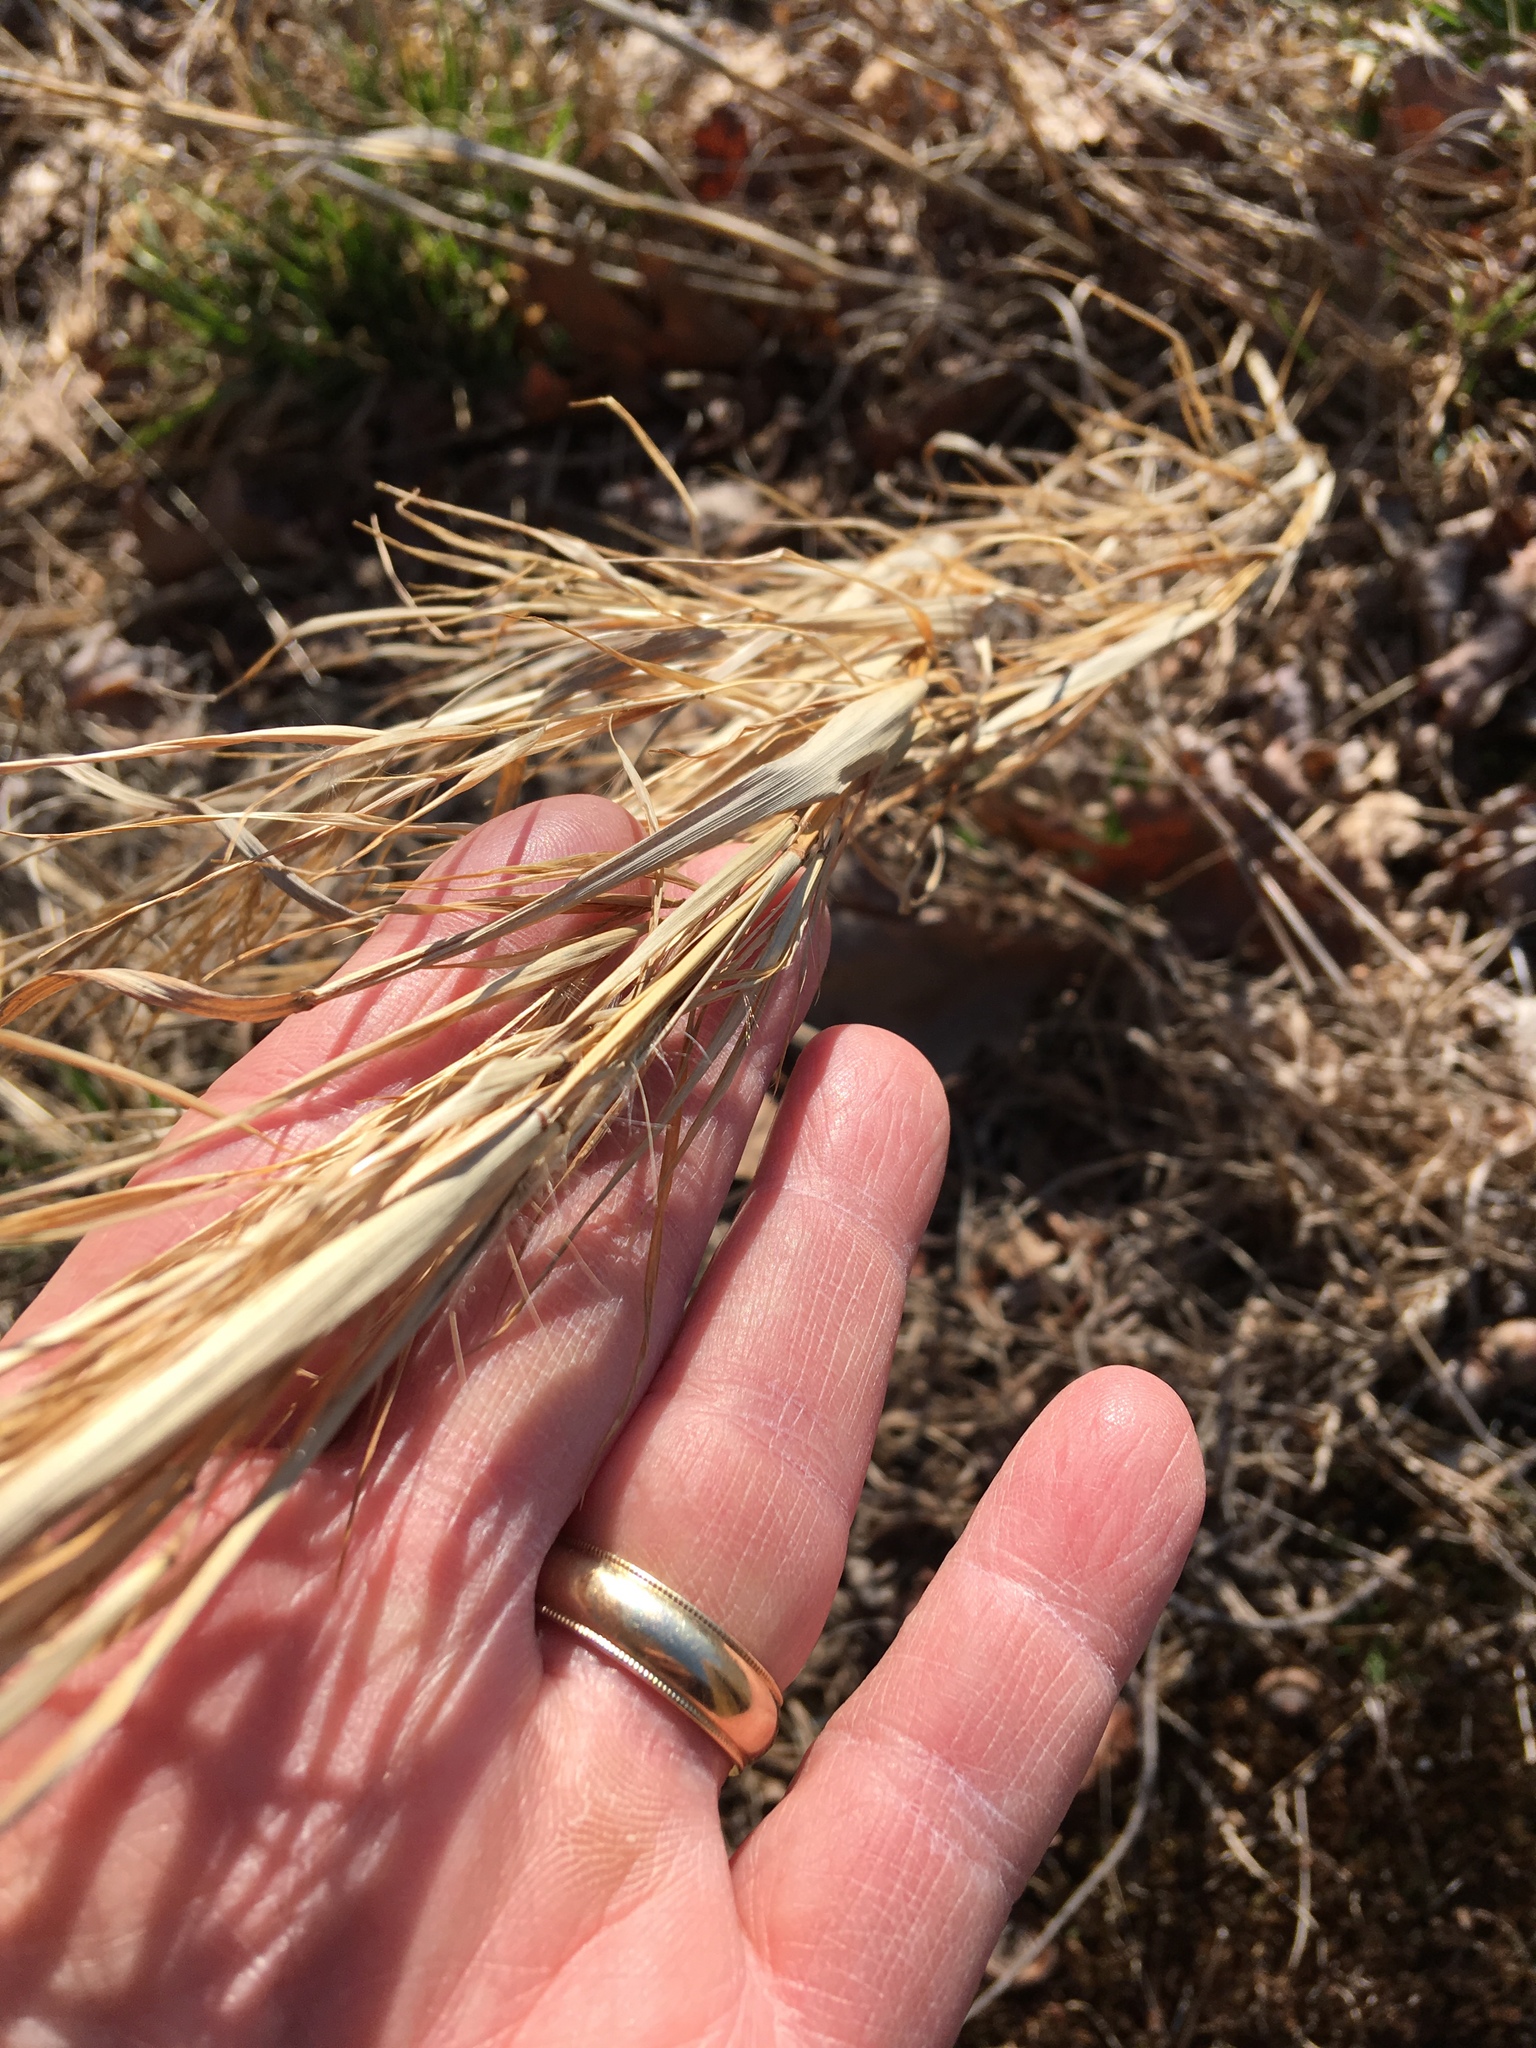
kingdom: Plantae
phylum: Tracheophyta
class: Liliopsida
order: Poales
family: Poaceae
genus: Andropogon
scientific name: Andropogon virginicus
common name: Broomsedge bluestem
